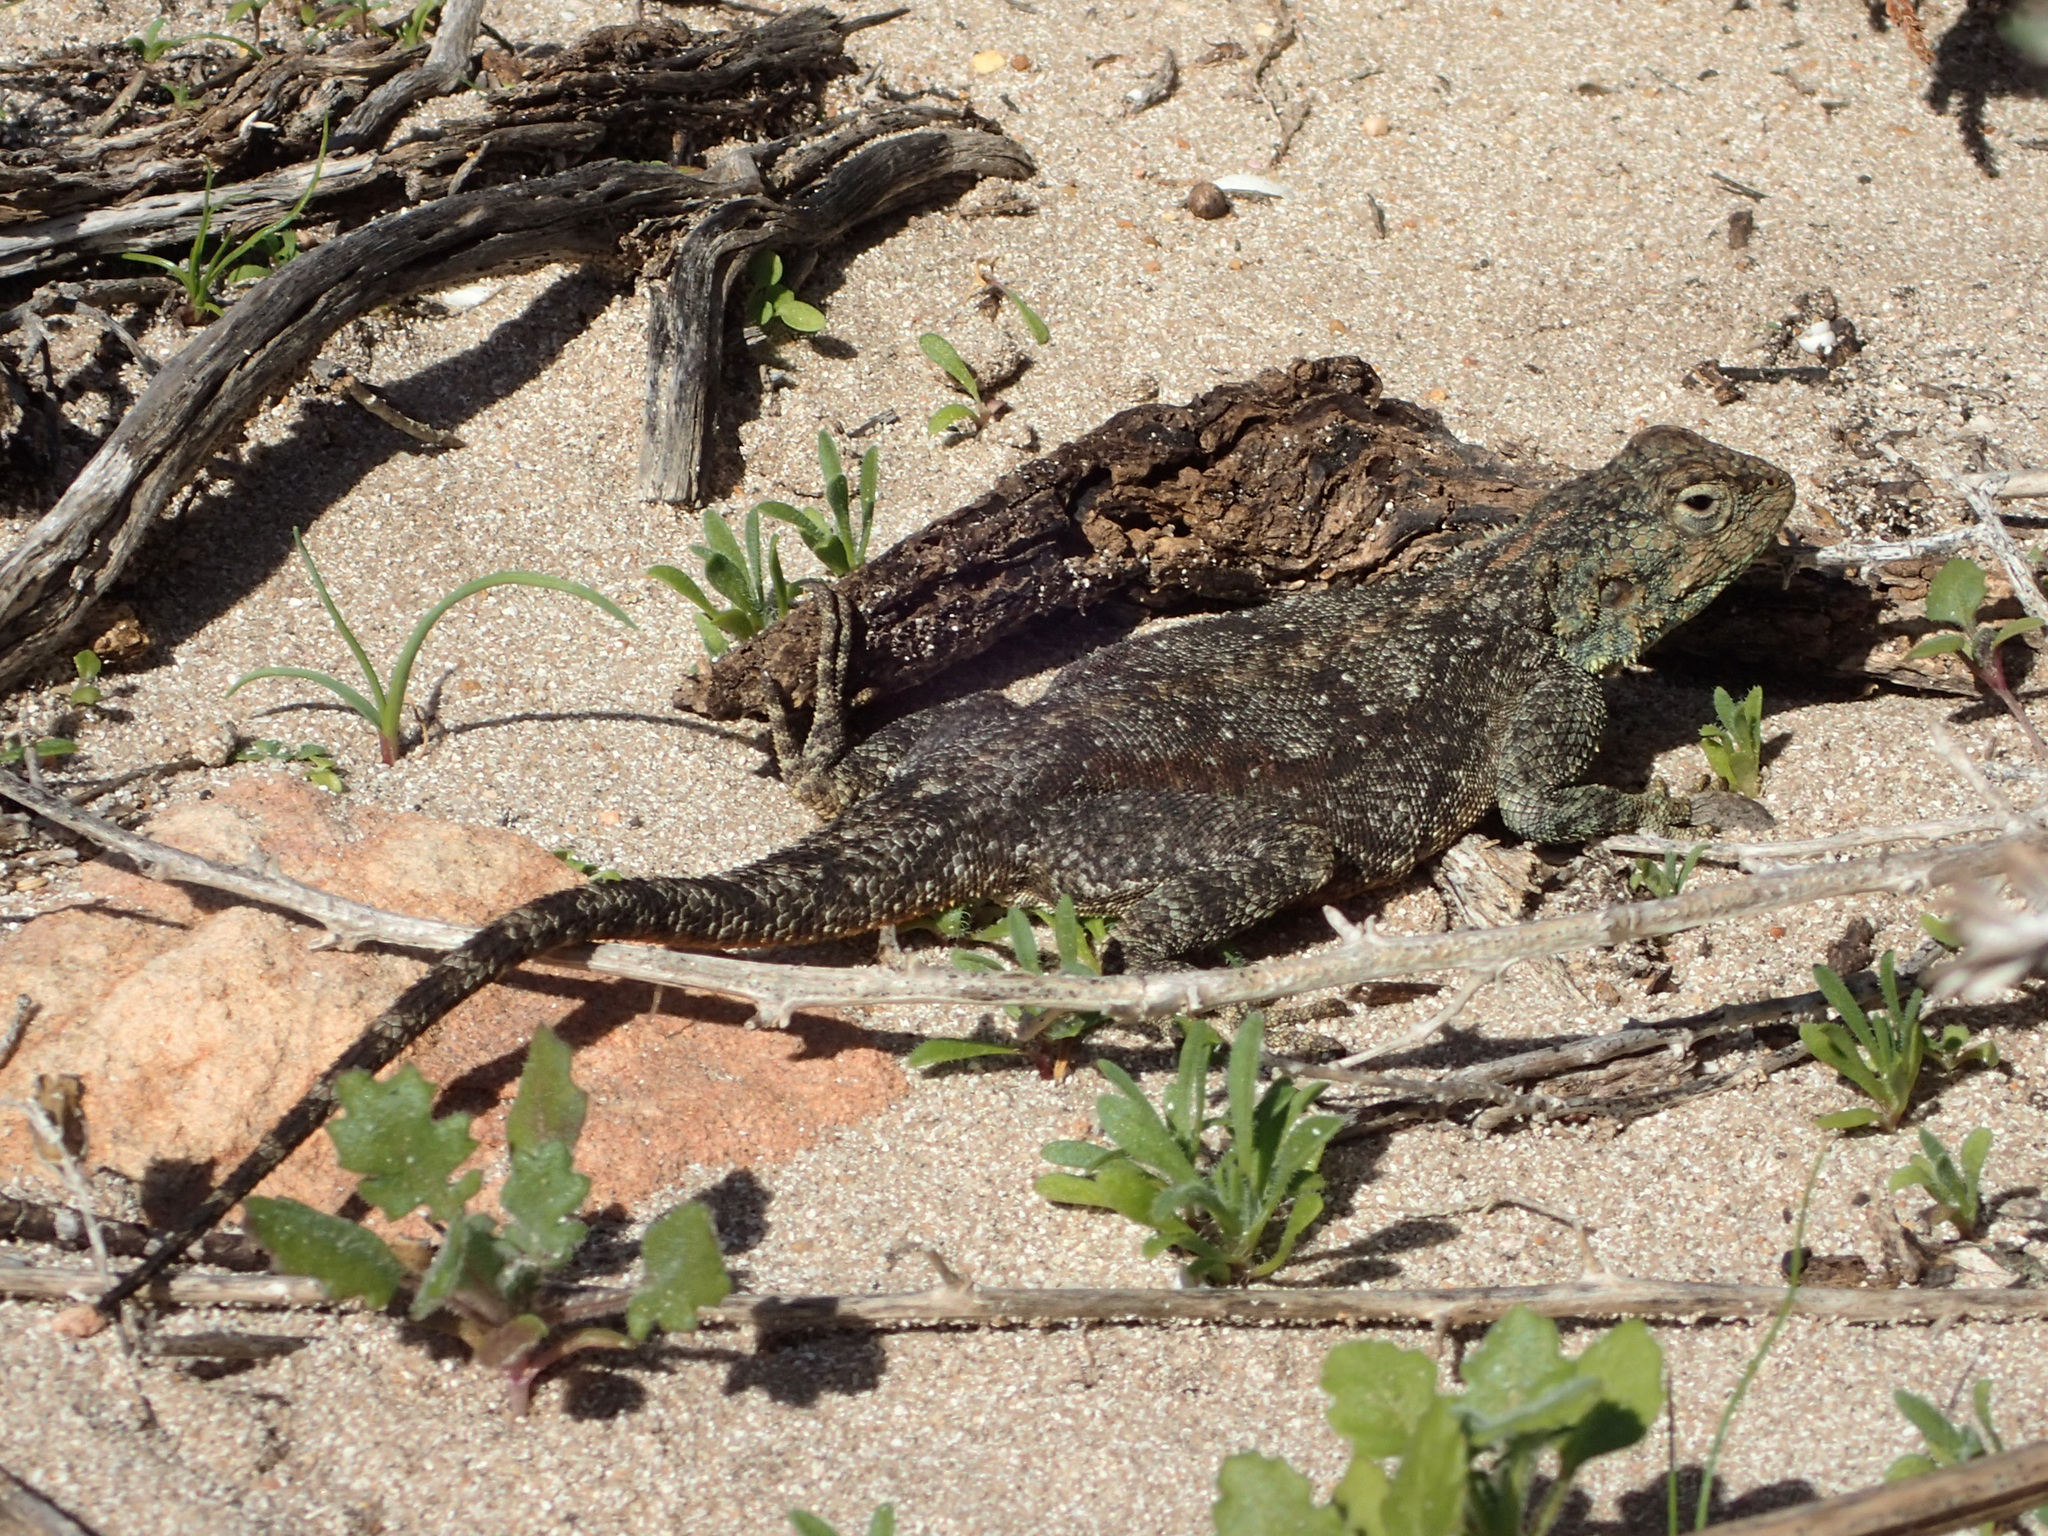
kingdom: Animalia
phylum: Chordata
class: Squamata
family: Agamidae
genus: Agama
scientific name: Agama atra
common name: Southern african rock agama
